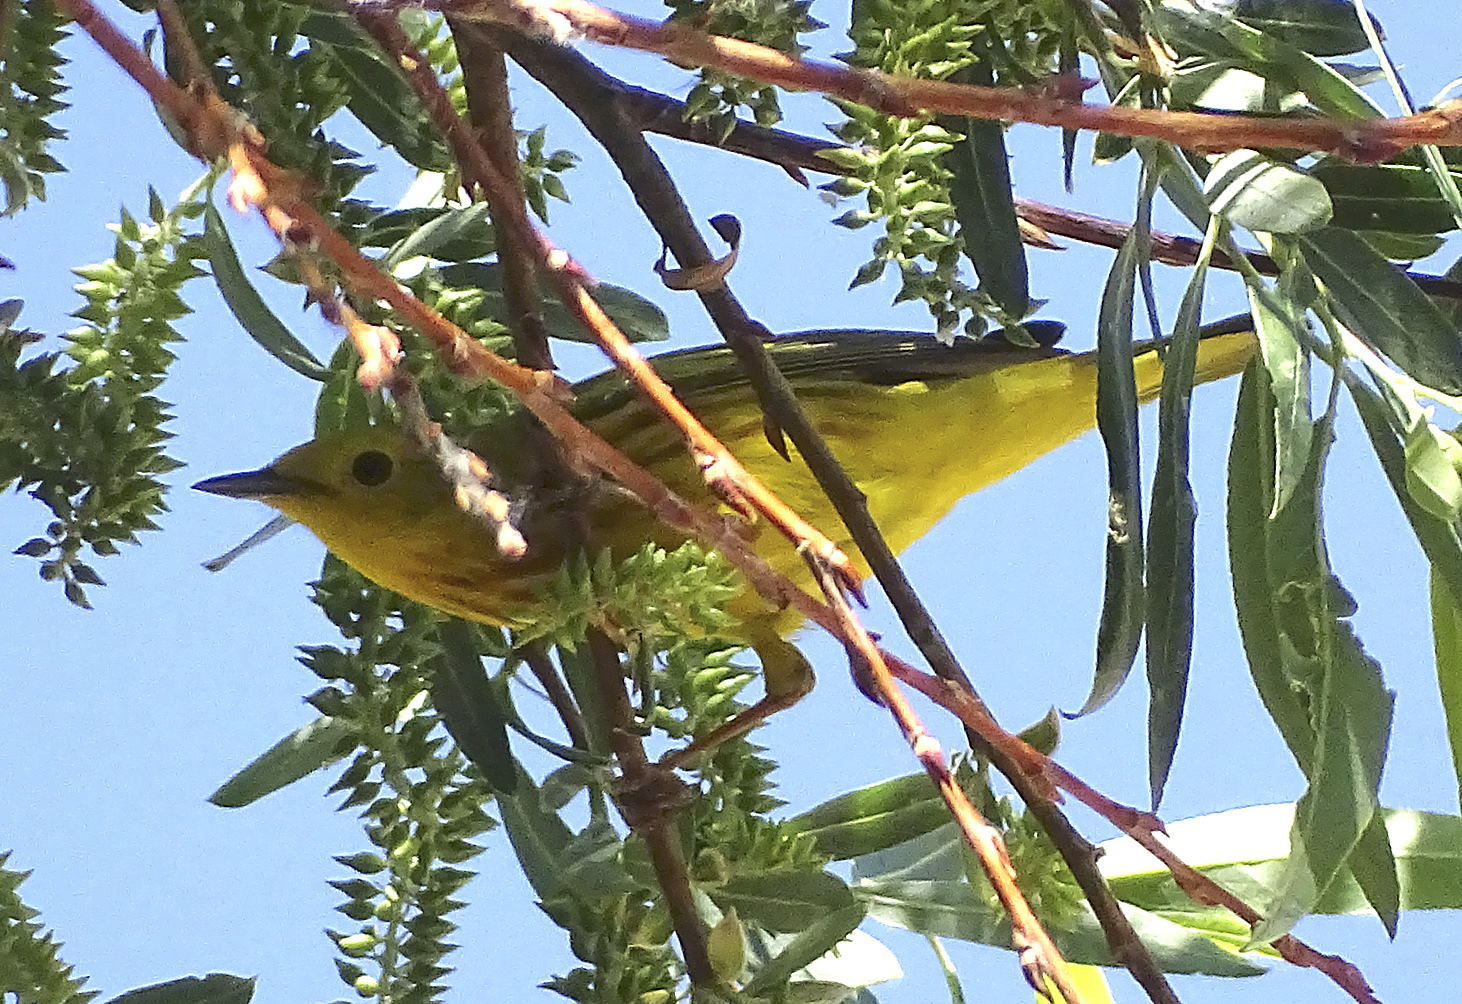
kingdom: Animalia
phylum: Chordata
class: Aves
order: Passeriformes
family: Parulidae
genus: Setophaga
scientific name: Setophaga petechia
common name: Yellow warbler
